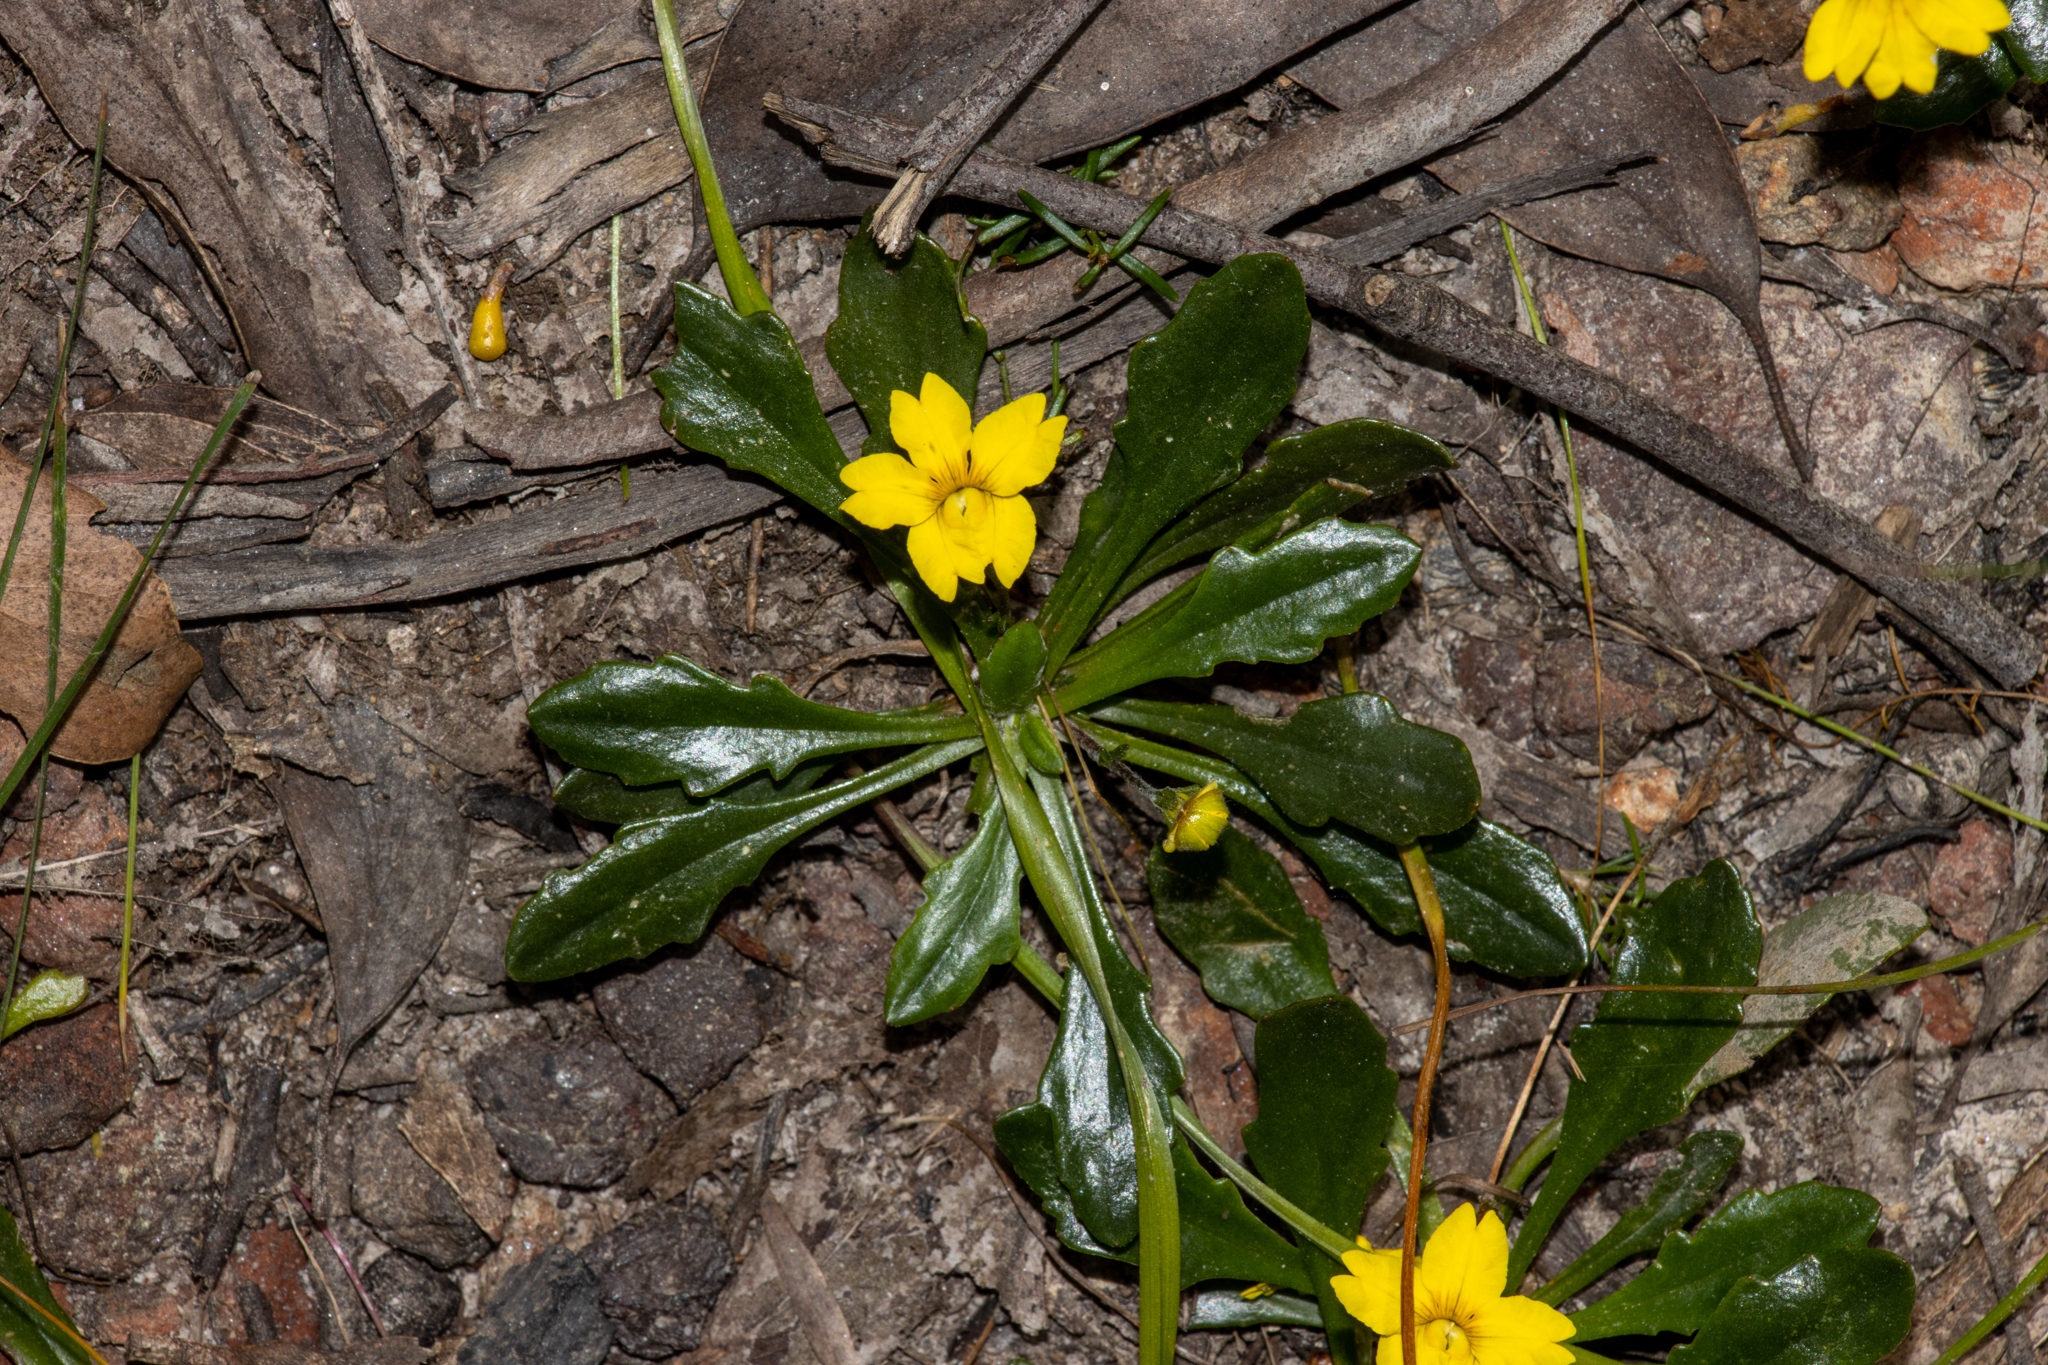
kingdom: Plantae
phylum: Tracheophyta
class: Magnoliopsida
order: Asterales
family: Goodeniaceae
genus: Goodenia
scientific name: Goodenia blackiana
